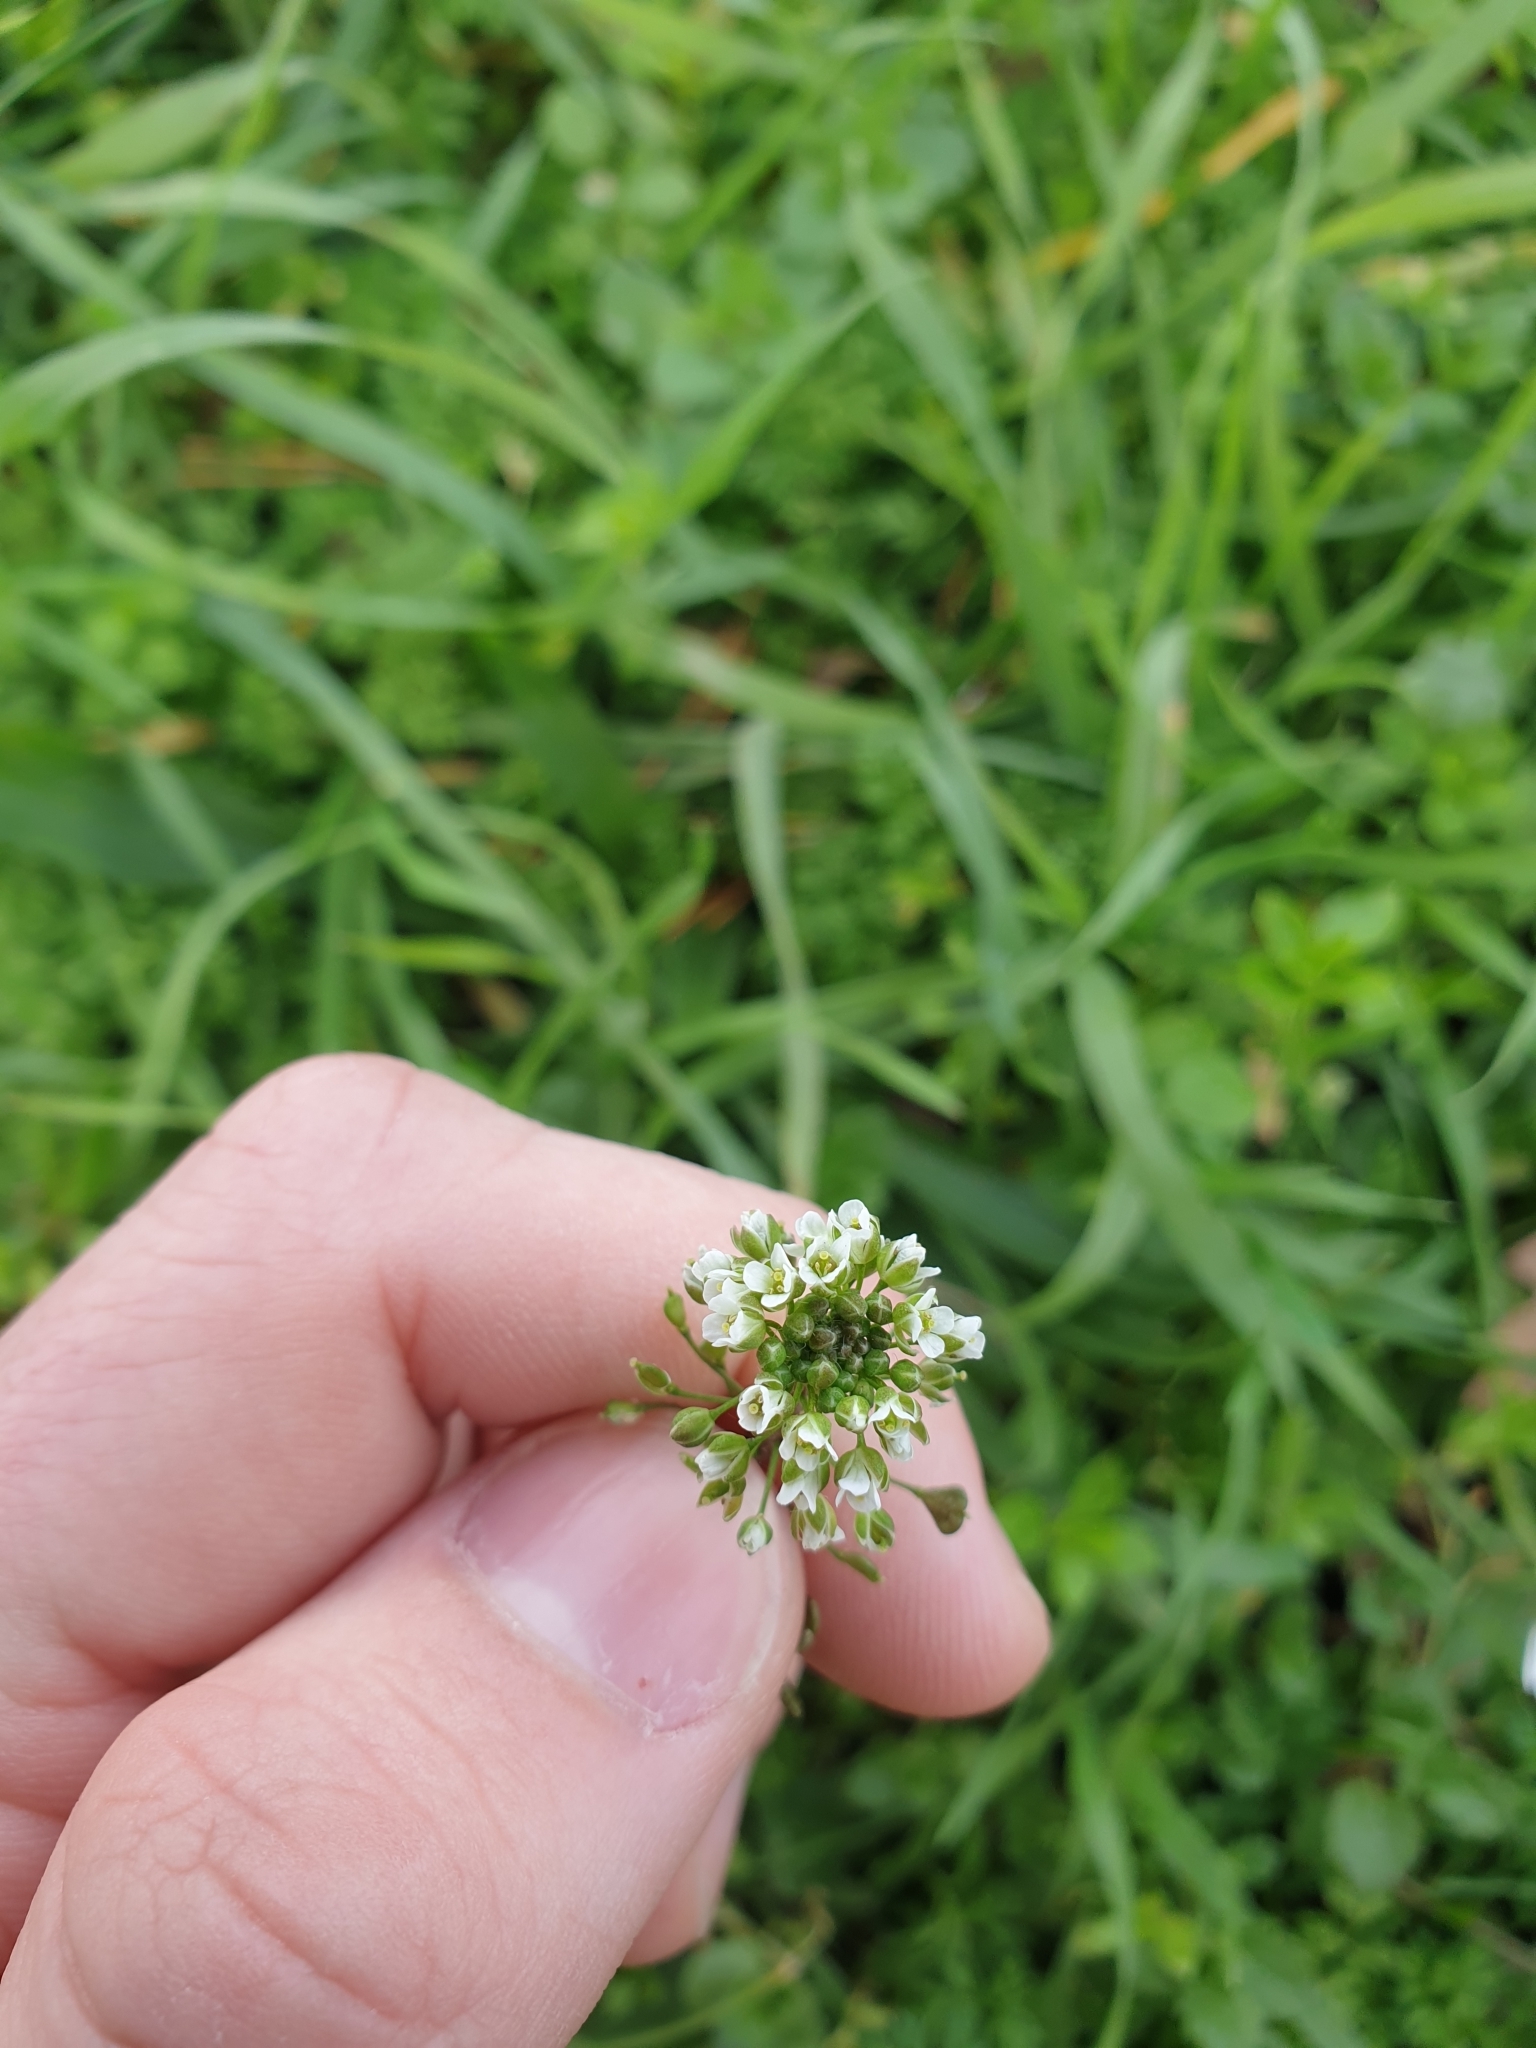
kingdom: Plantae
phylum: Tracheophyta
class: Magnoliopsida
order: Brassicales
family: Brassicaceae
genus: Capsella
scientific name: Capsella bursa-pastoris
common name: Shepherd's purse
